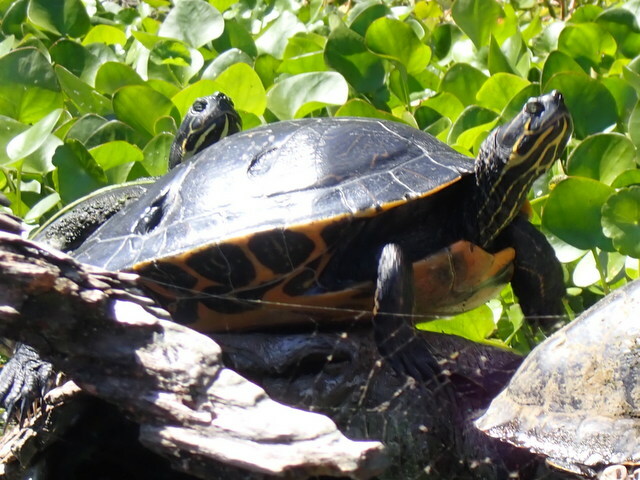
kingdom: Animalia
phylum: Chordata
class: Testudines
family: Emydidae
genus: Pseudemys
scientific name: Pseudemys concinna
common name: Eastern river cooter
